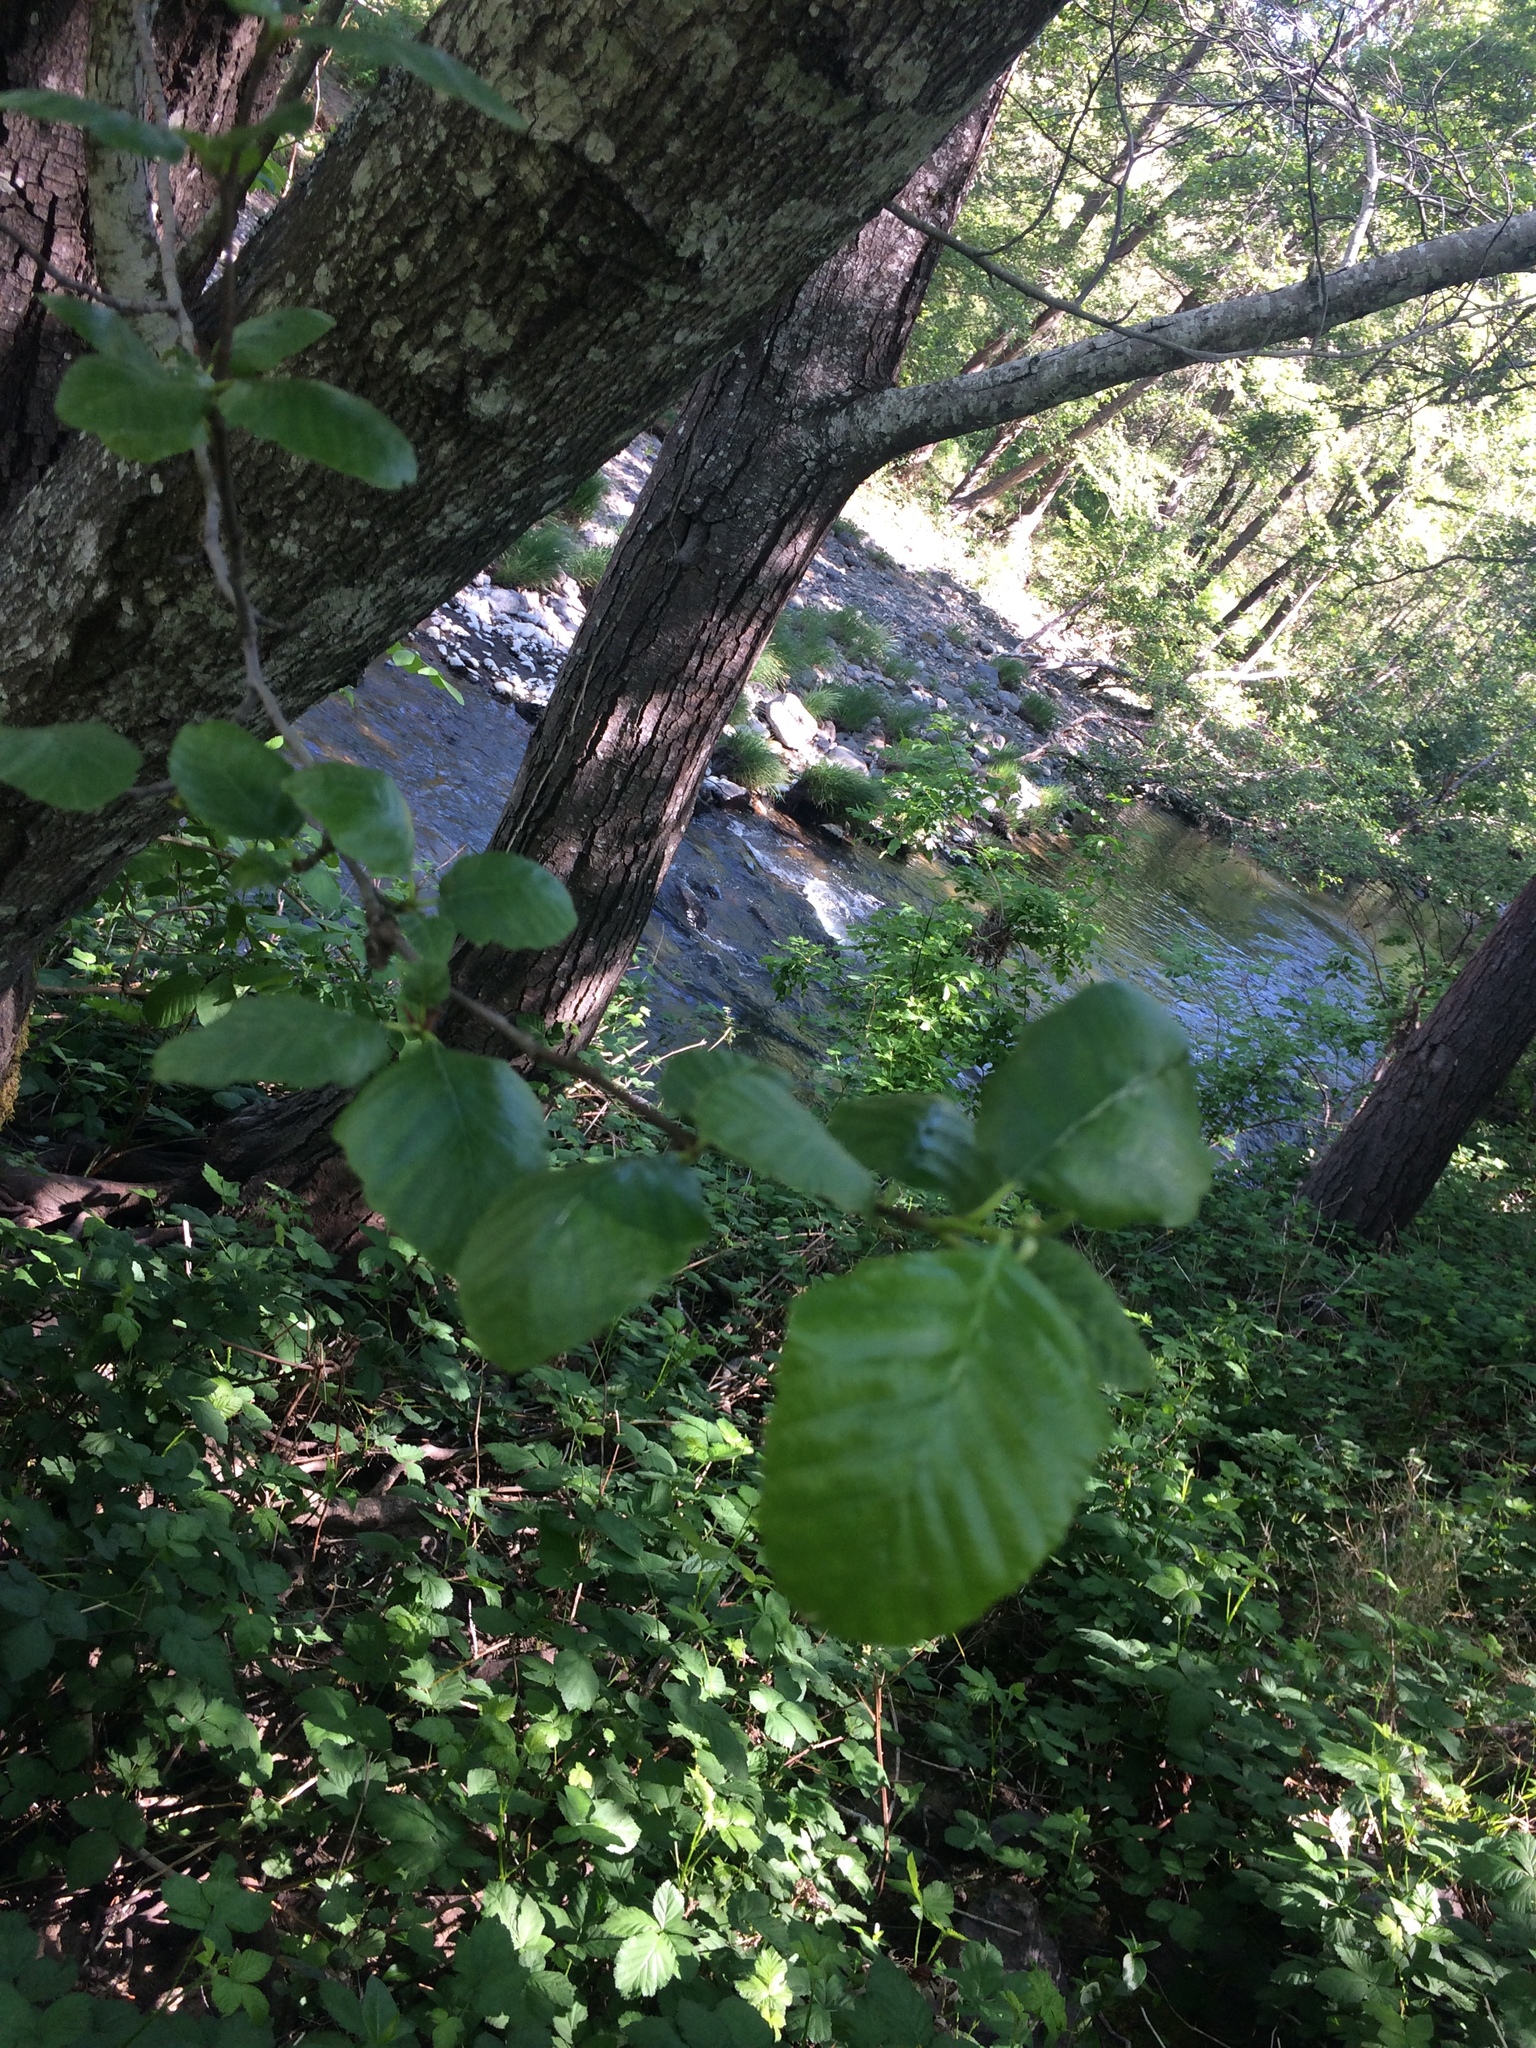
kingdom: Plantae
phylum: Tracheophyta
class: Magnoliopsida
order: Fagales
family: Betulaceae
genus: Alnus
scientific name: Alnus rhombifolia
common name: California alder
